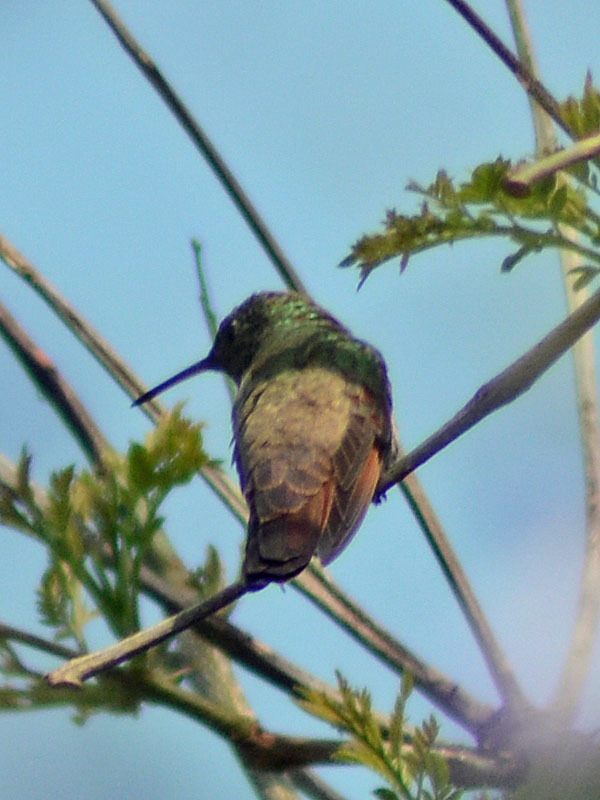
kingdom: Animalia
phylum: Chordata
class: Aves
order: Apodiformes
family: Trochilidae
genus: Saucerottia
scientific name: Saucerottia beryllina
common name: Berylline hummingbird
